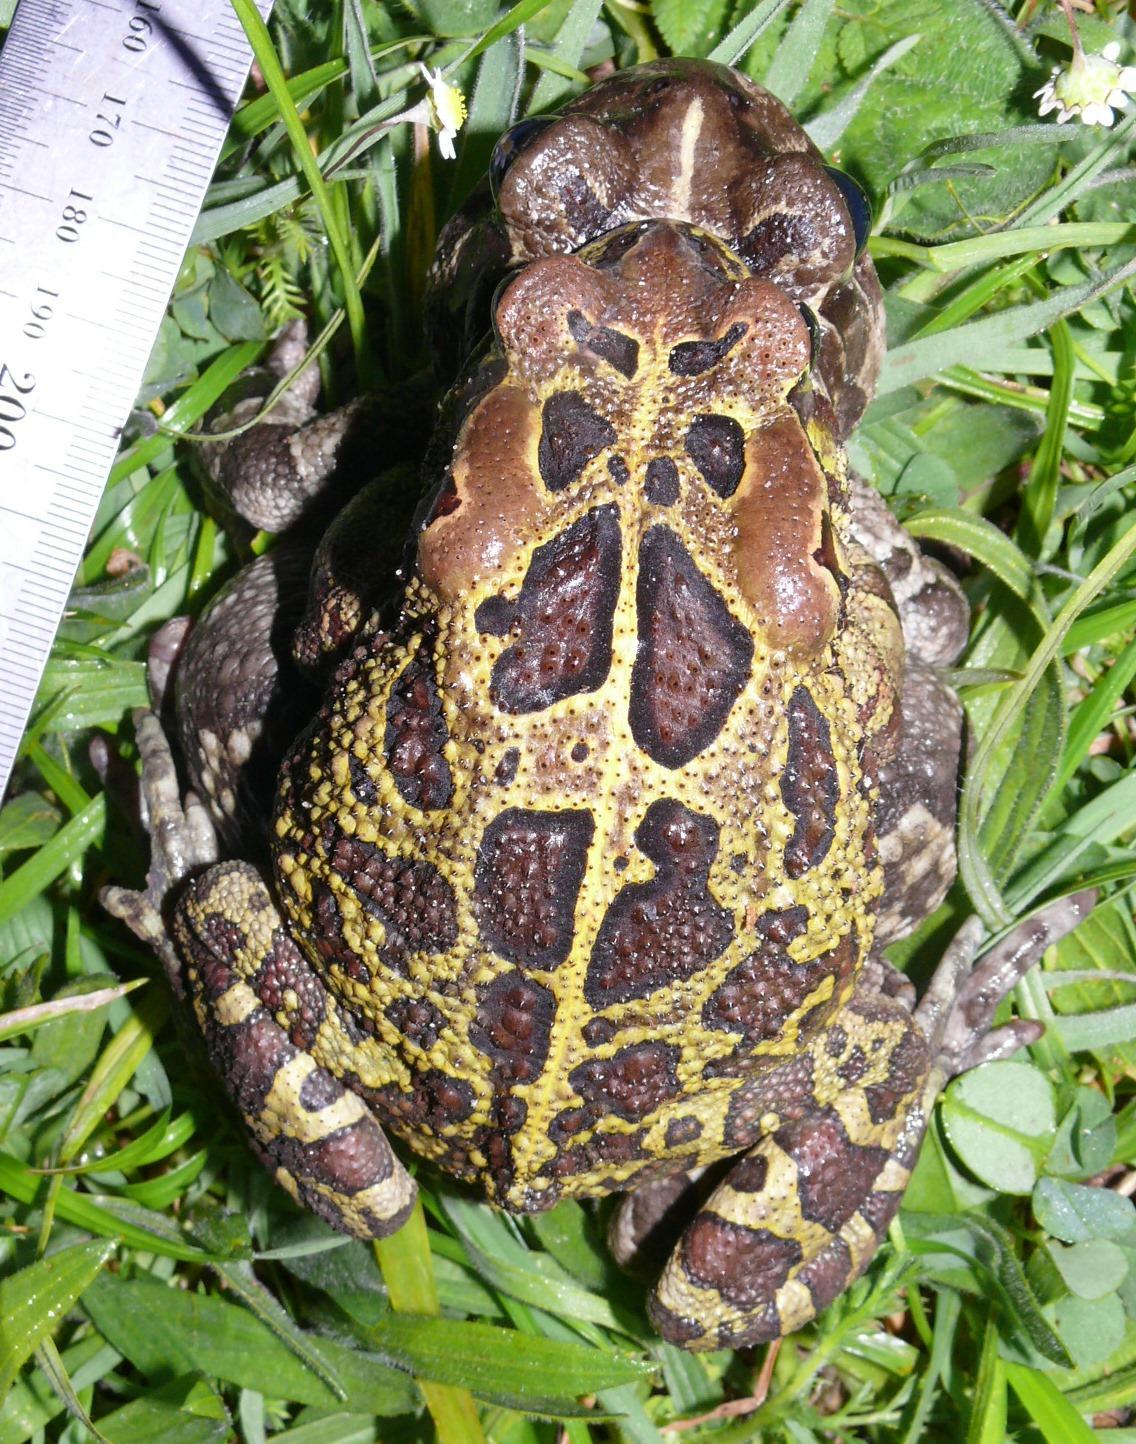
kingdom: Animalia
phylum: Chordata
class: Amphibia
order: Anura
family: Bufonidae
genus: Sclerophrys
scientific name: Sclerophrys pantherina
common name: Panther toad
